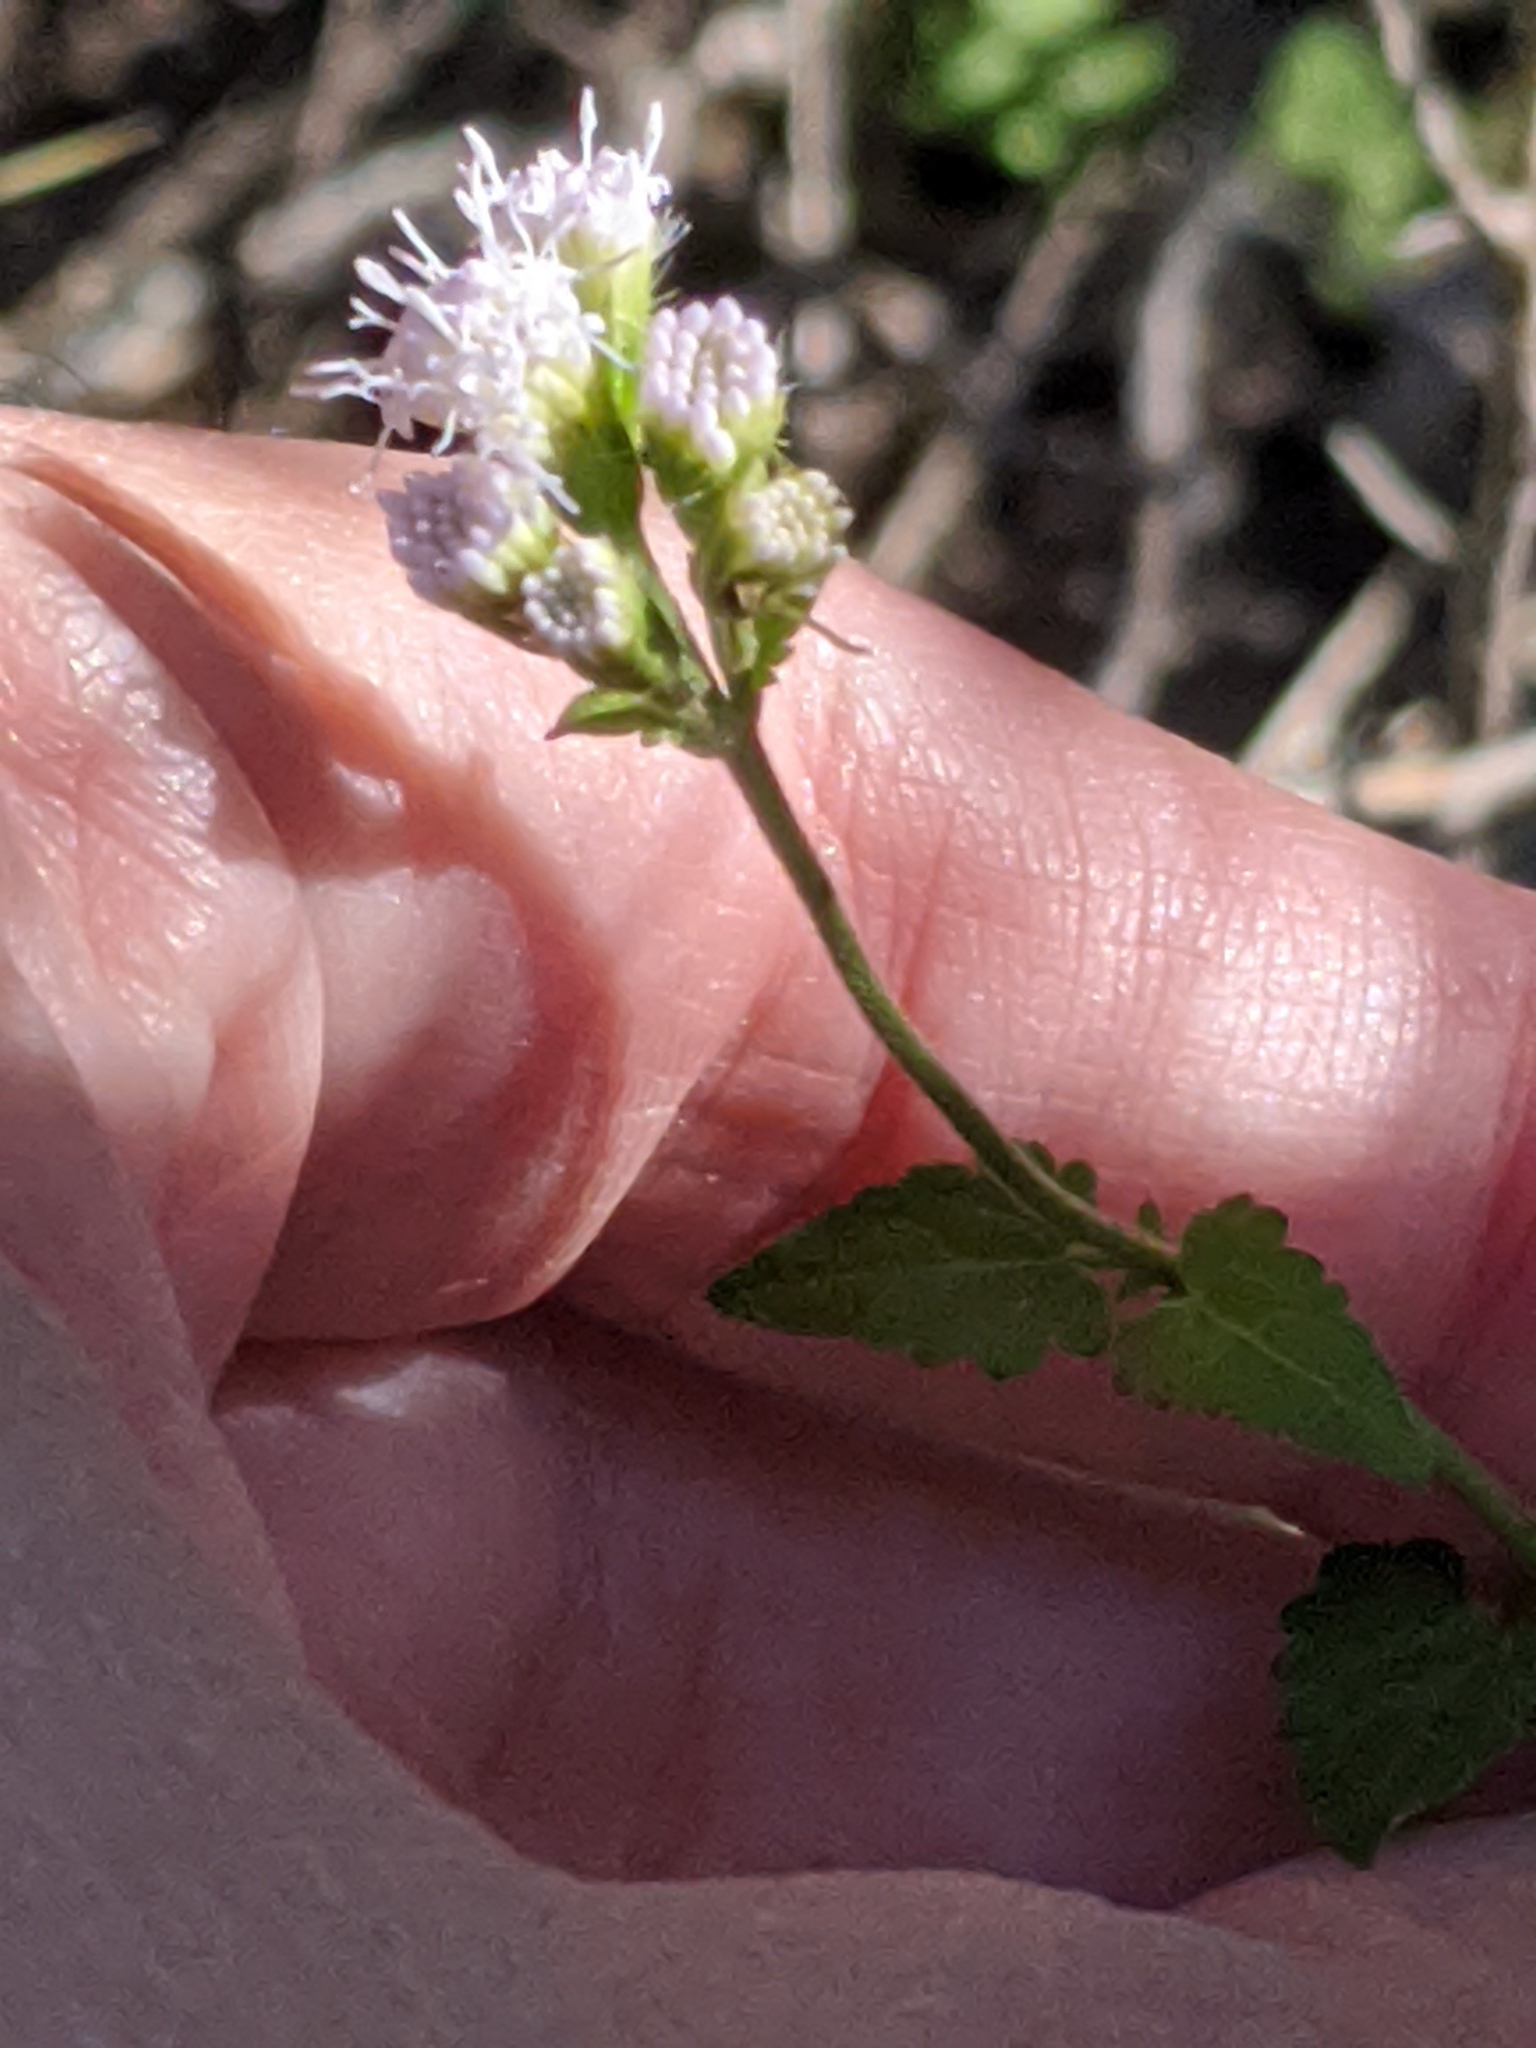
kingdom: Plantae
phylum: Tracheophyta
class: Magnoliopsida
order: Asterales
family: Asteraceae
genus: Fleischmannia
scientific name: Fleischmannia incarnata
